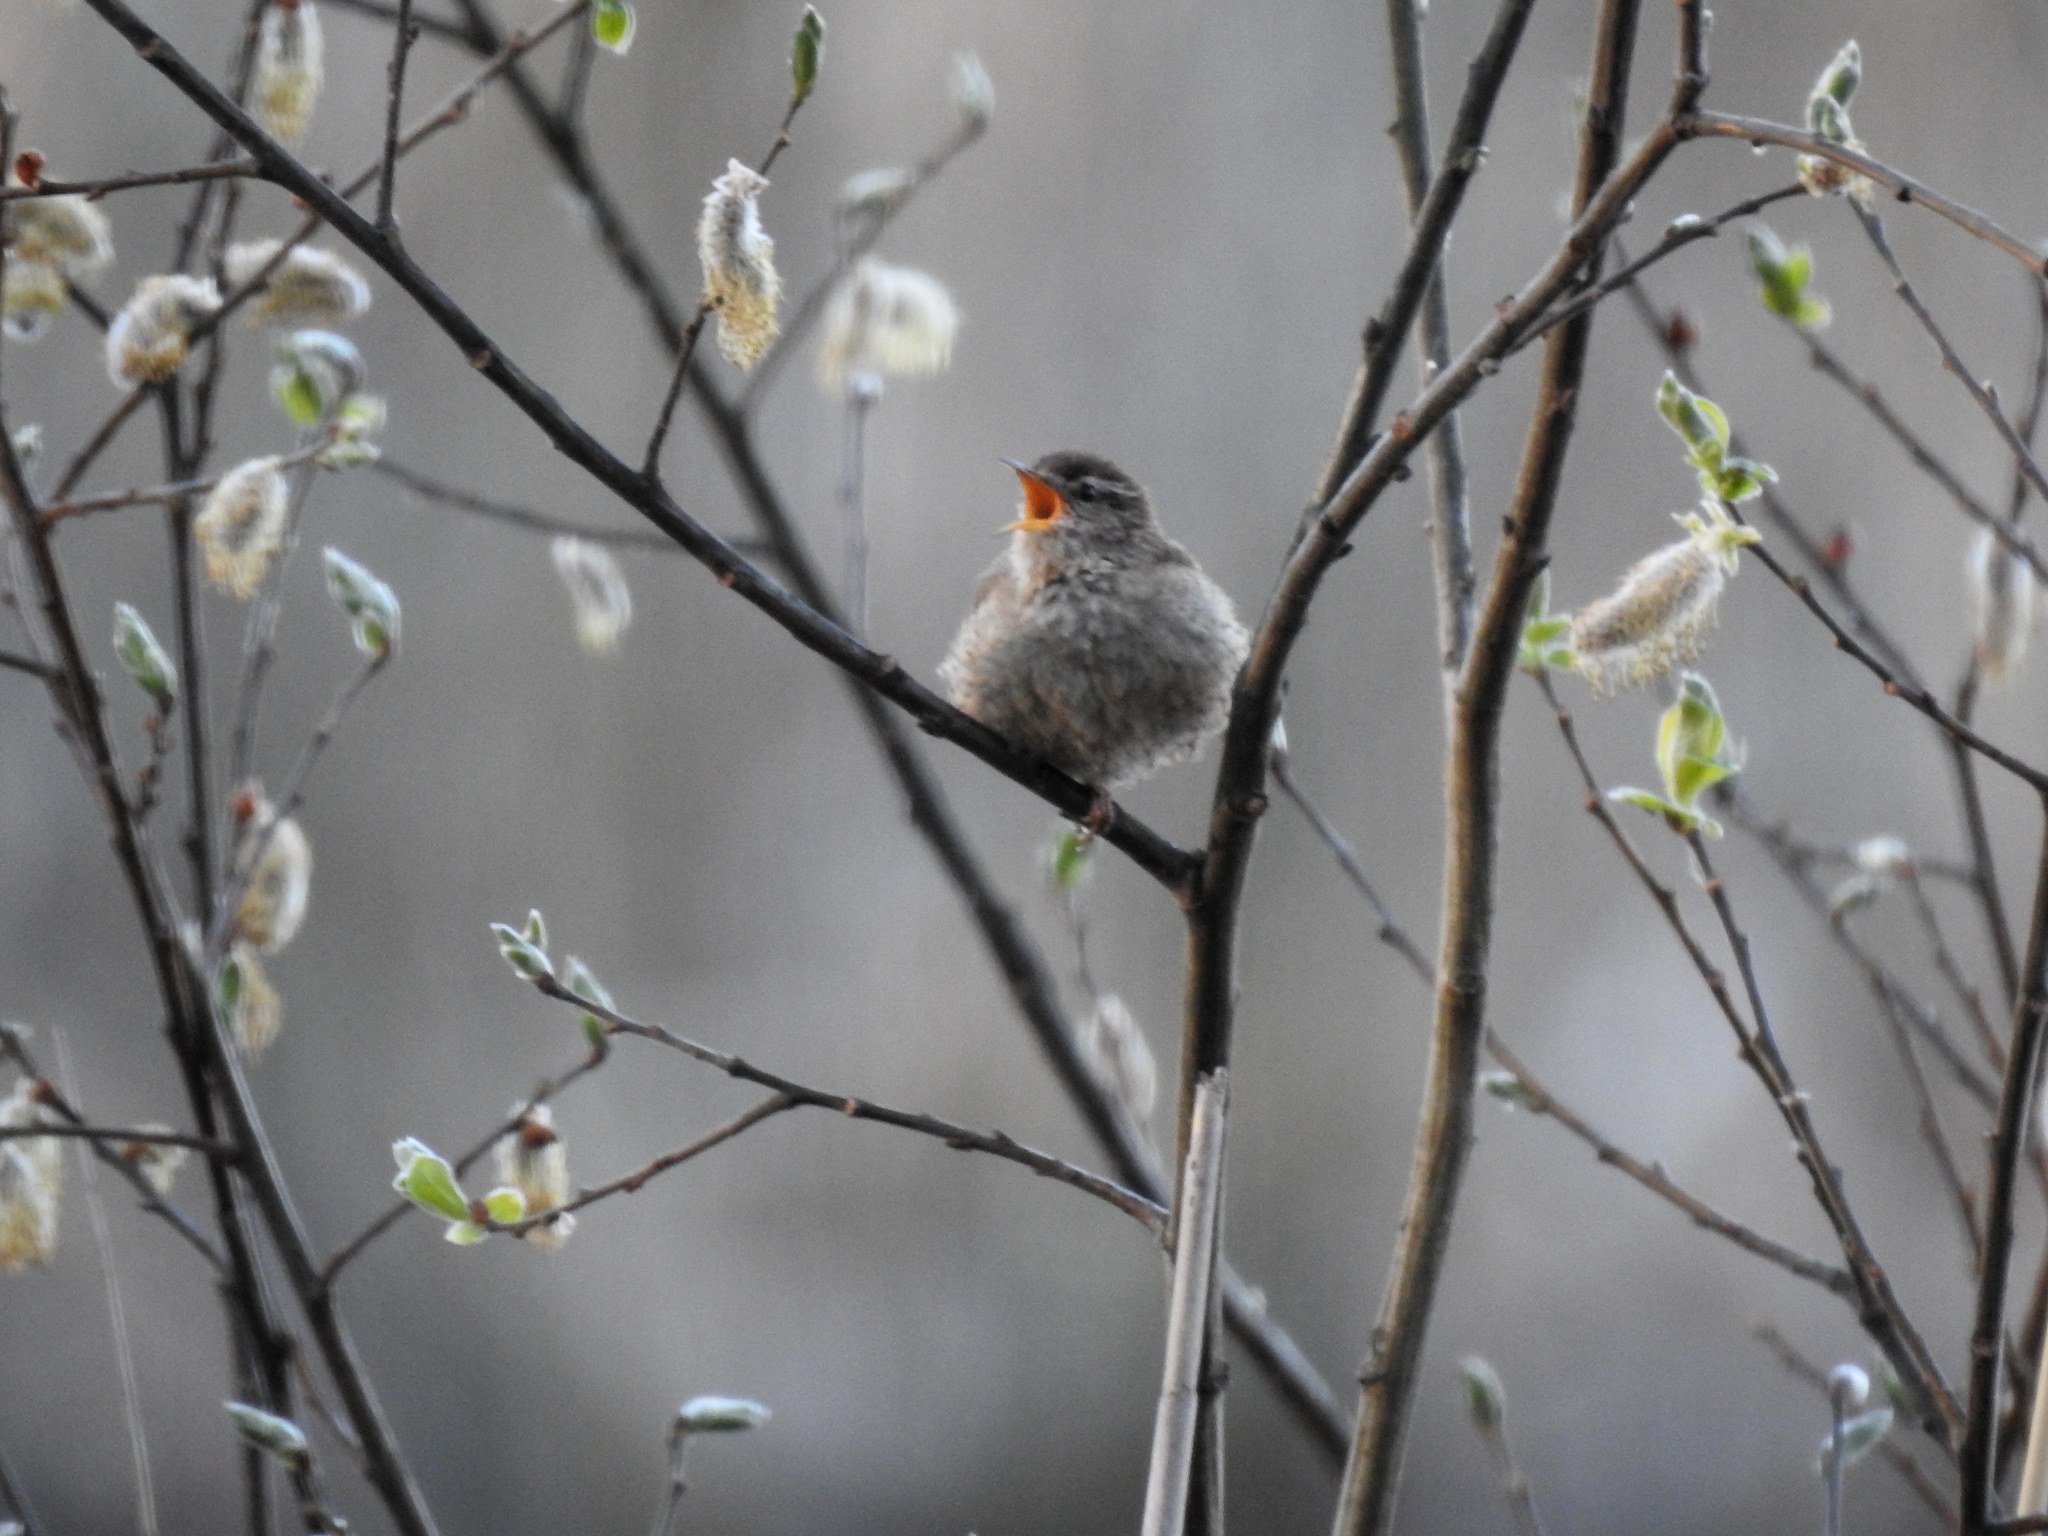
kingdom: Animalia
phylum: Chordata
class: Aves
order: Passeriformes
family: Troglodytidae
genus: Troglodytes
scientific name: Troglodytes troglodytes
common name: Eurasian wren
